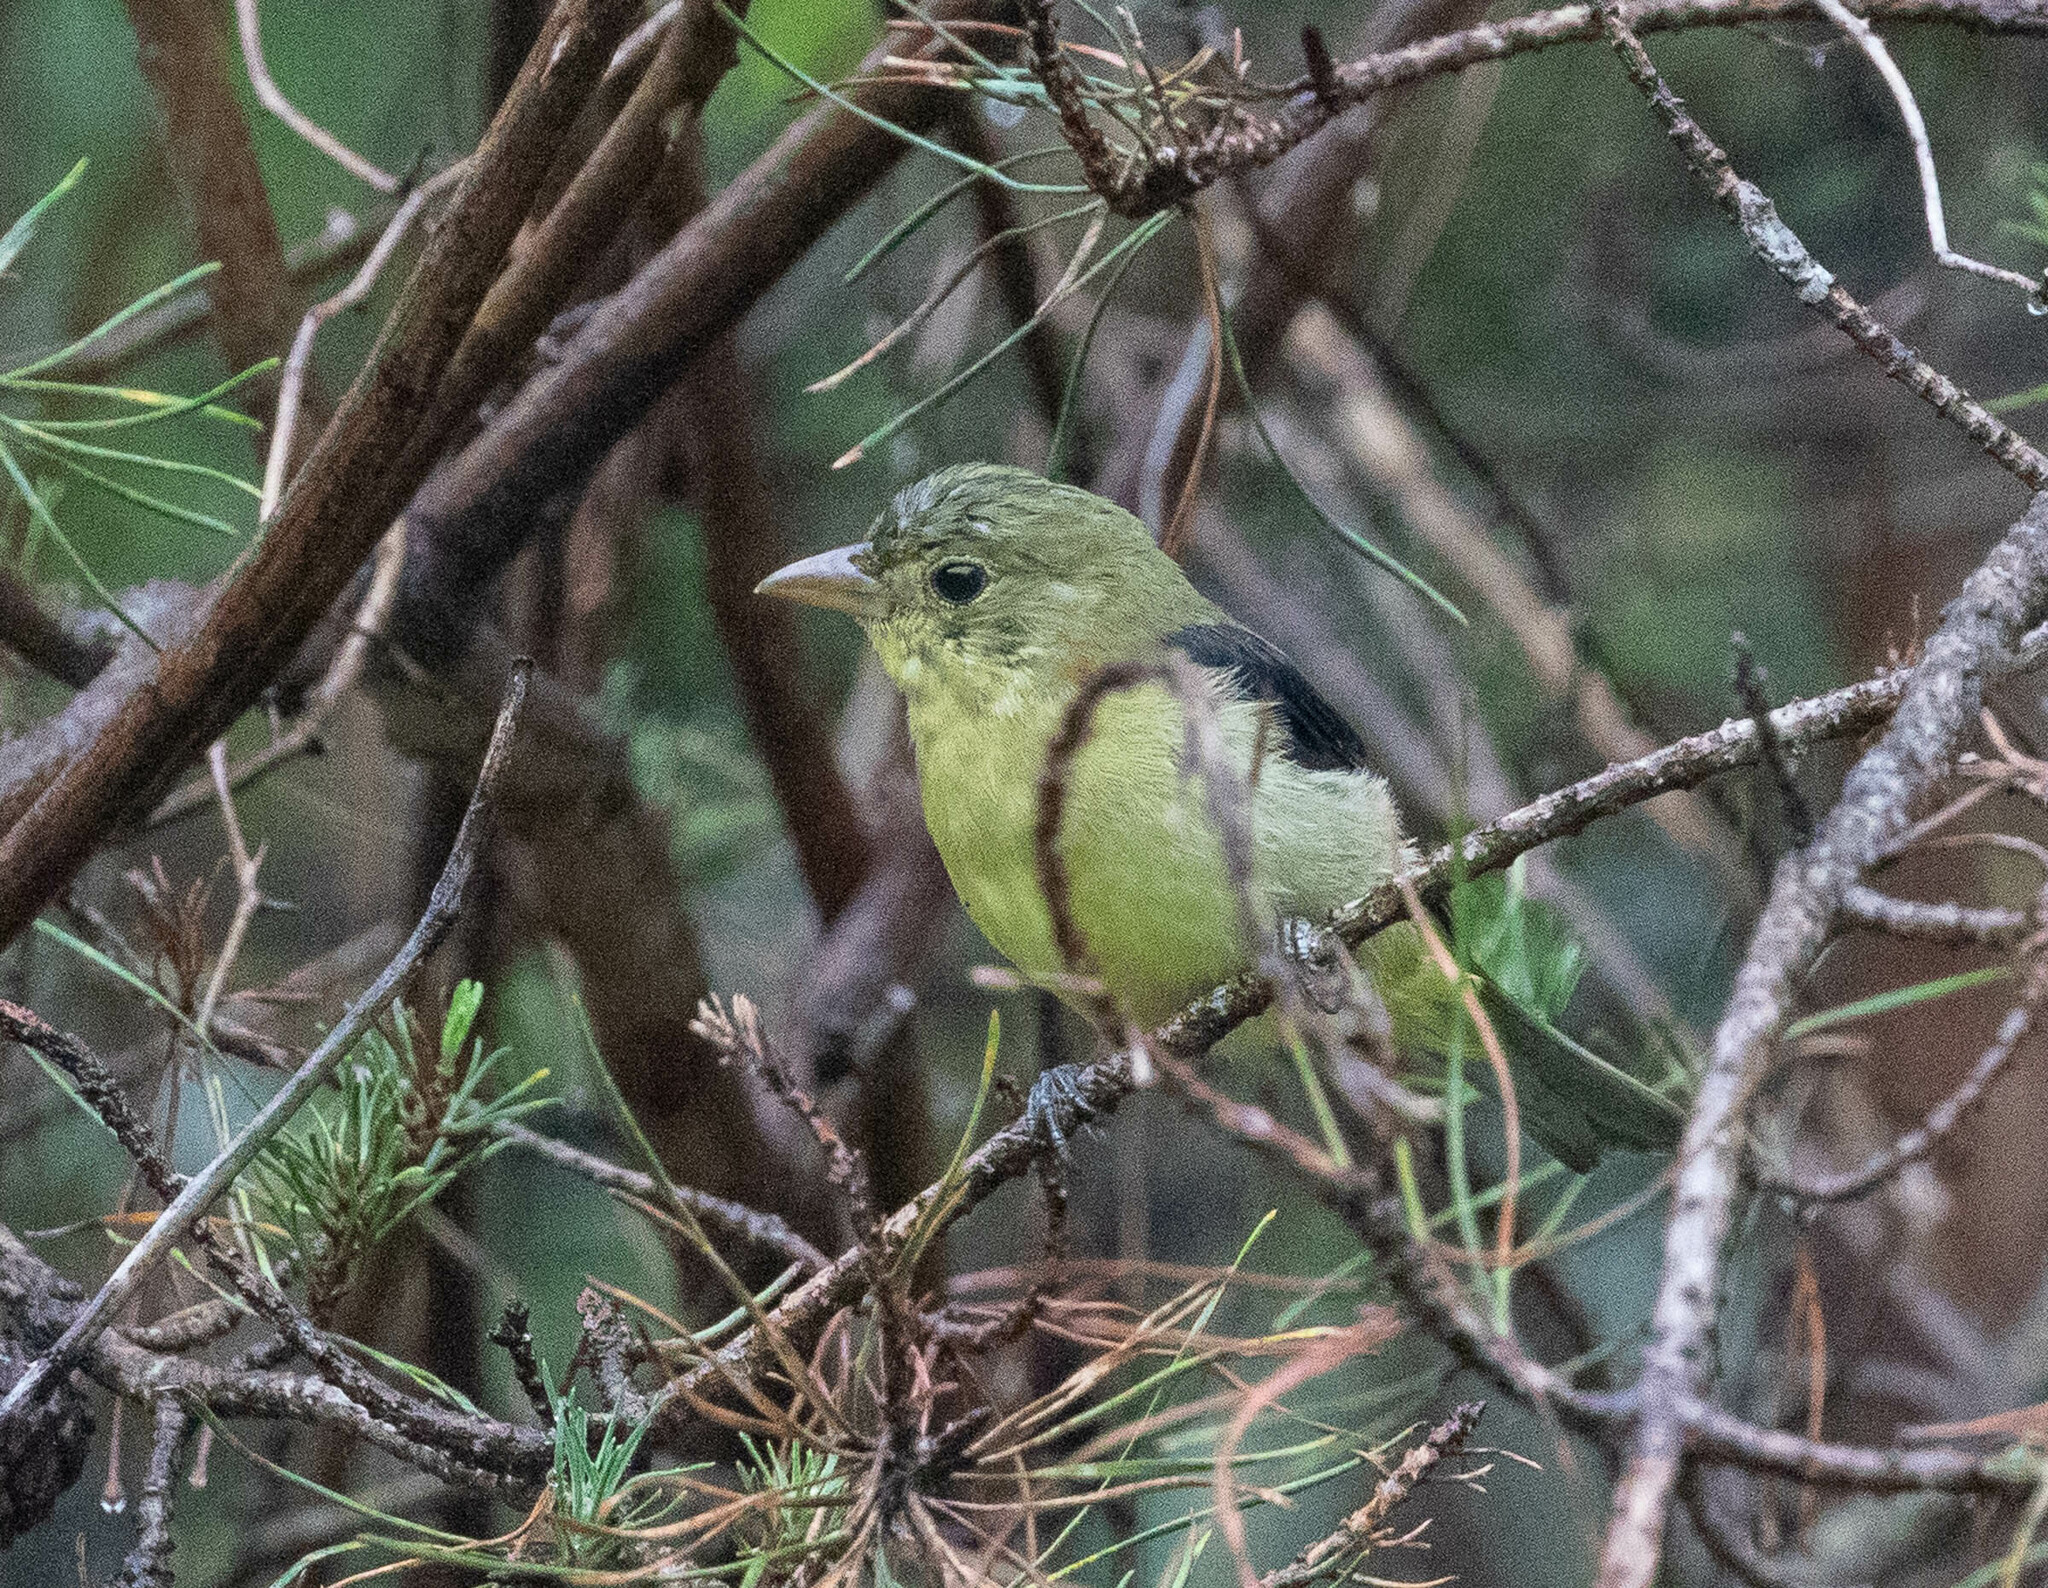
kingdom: Animalia
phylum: Chordata
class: Aves
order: Passeriformes
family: Cardinalidae
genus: Piranga
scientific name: Piranga olivacea
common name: Scarlet tanager
